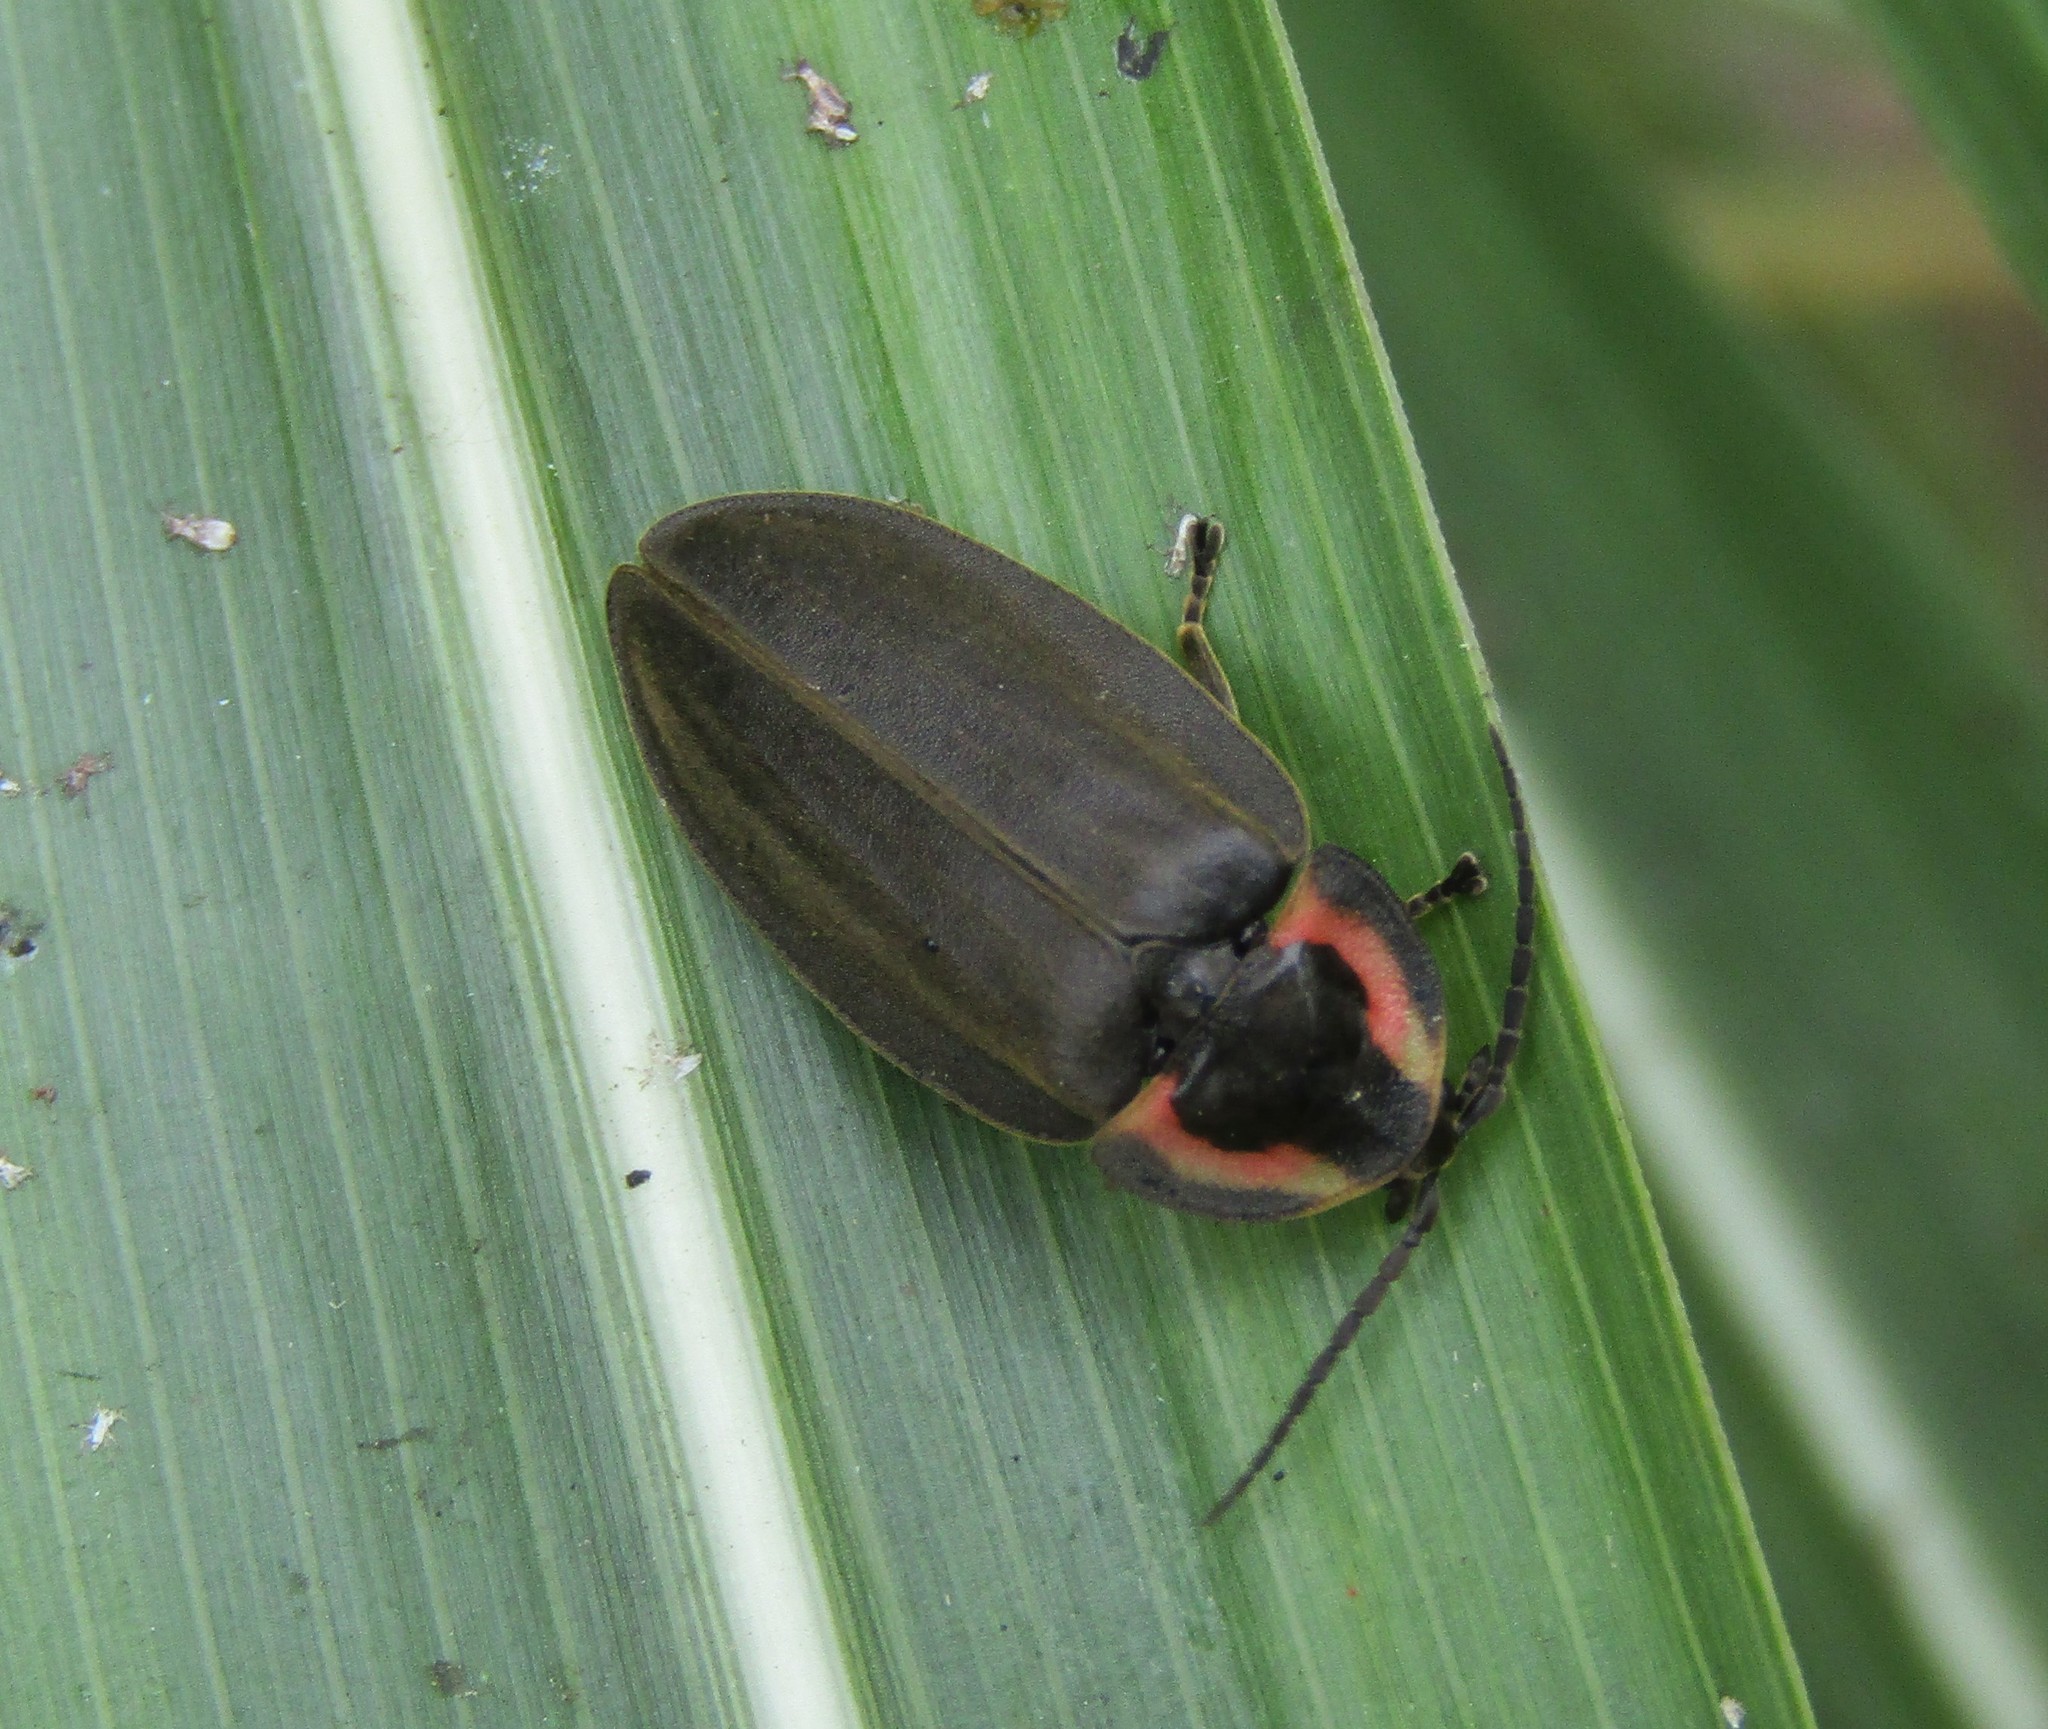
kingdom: Animalia
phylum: Arthropoda
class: Insecta
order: Coleoptera
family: Lampyridae
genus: Photinus
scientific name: Photinus corrusca
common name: Winter firefly
